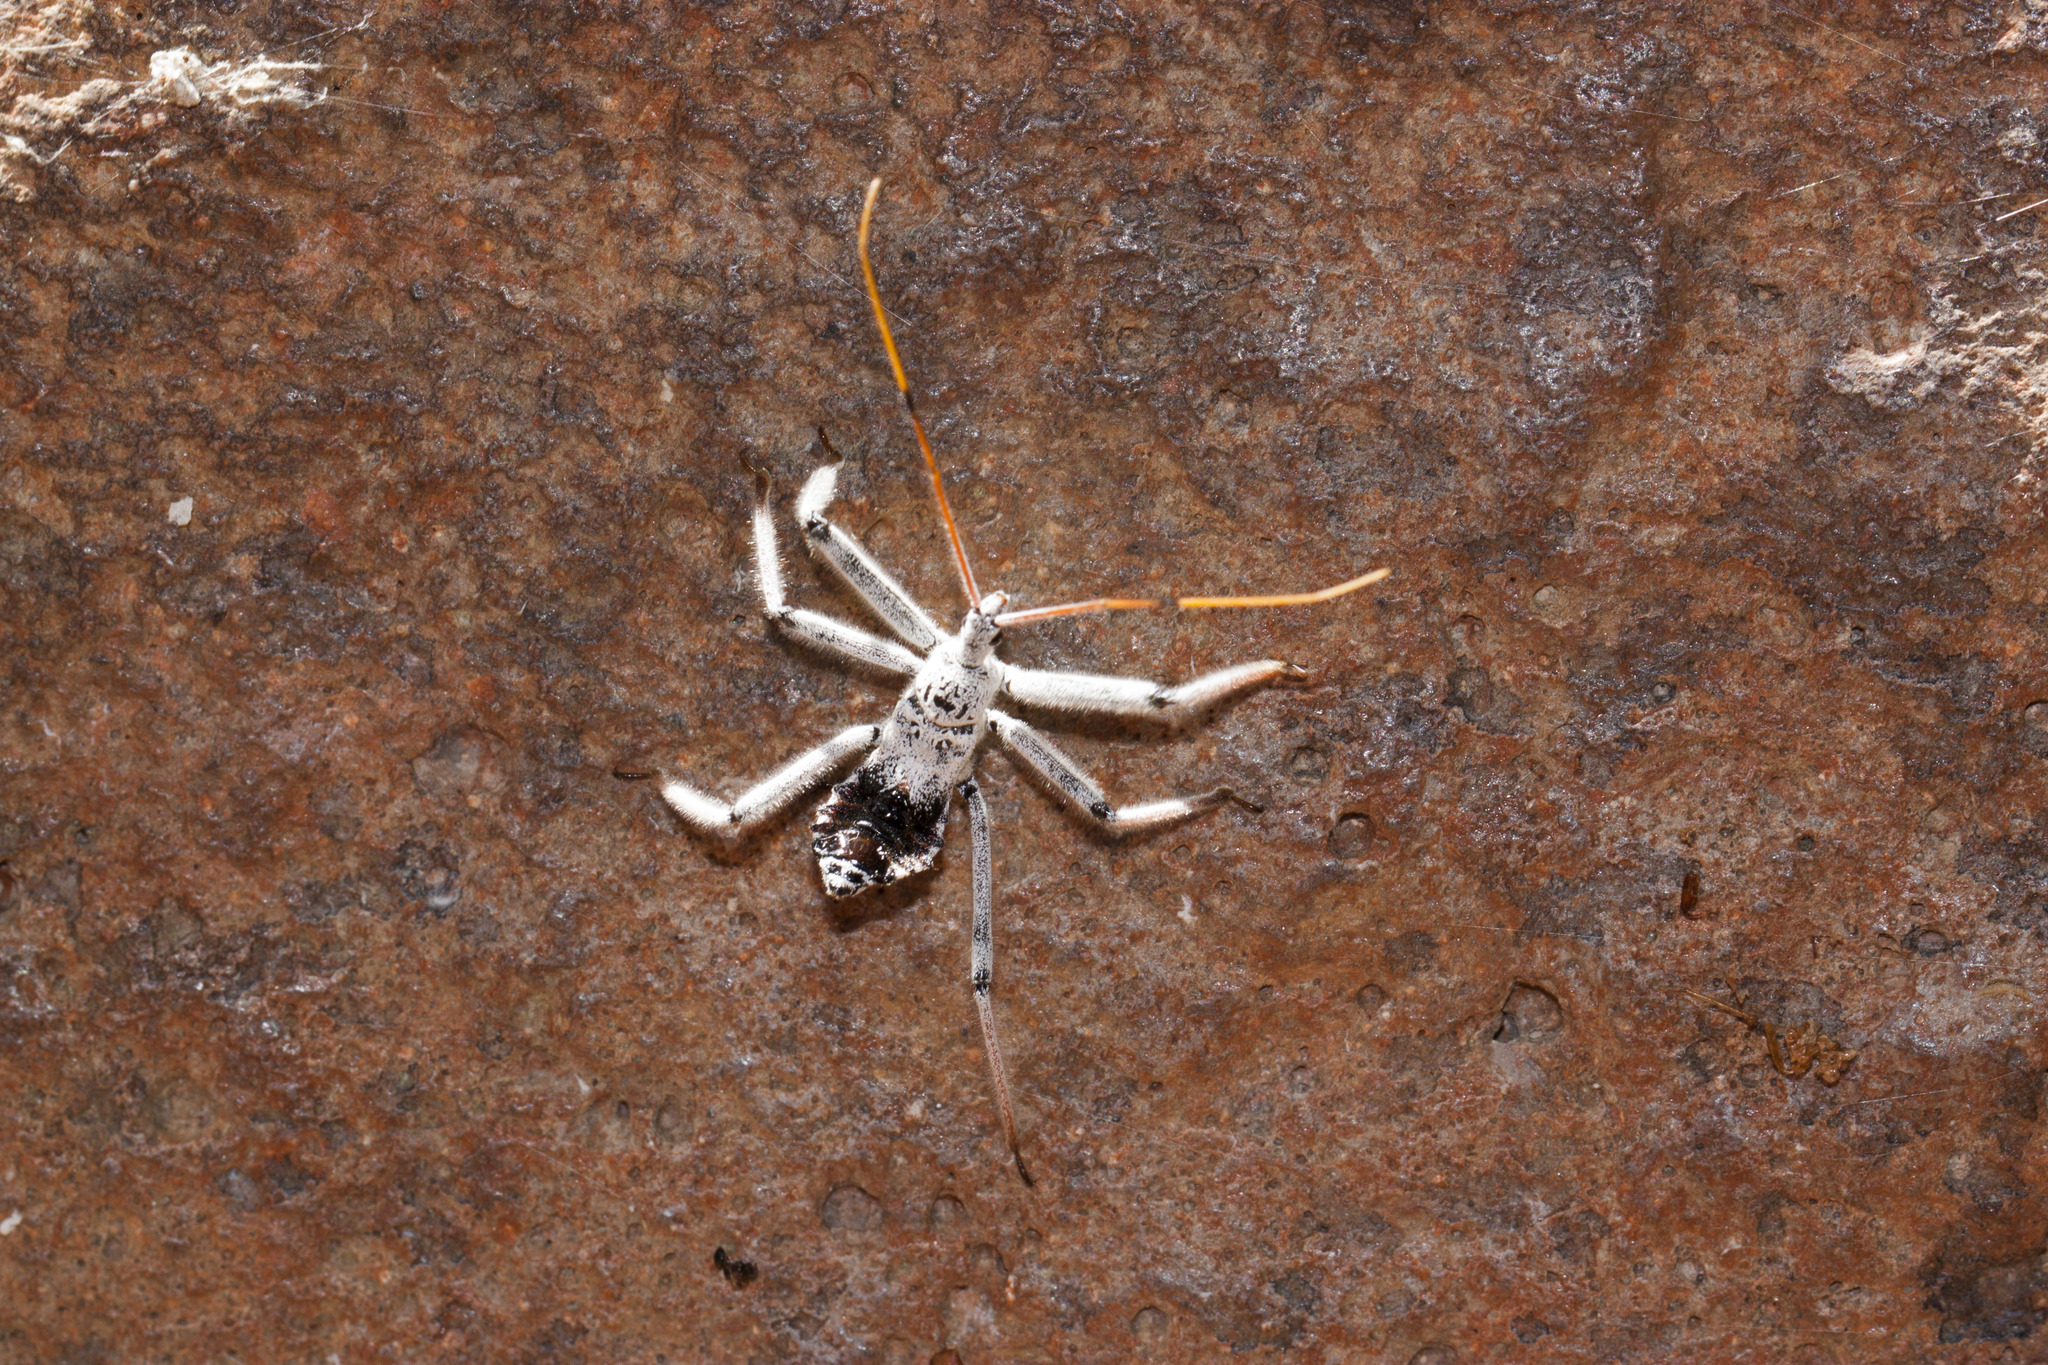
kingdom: Animalia
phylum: Arthropoda
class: Insecta
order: Hemiptera
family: Reduviidae
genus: Arilus
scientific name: Arilus cristatus
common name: North american wheel bug
